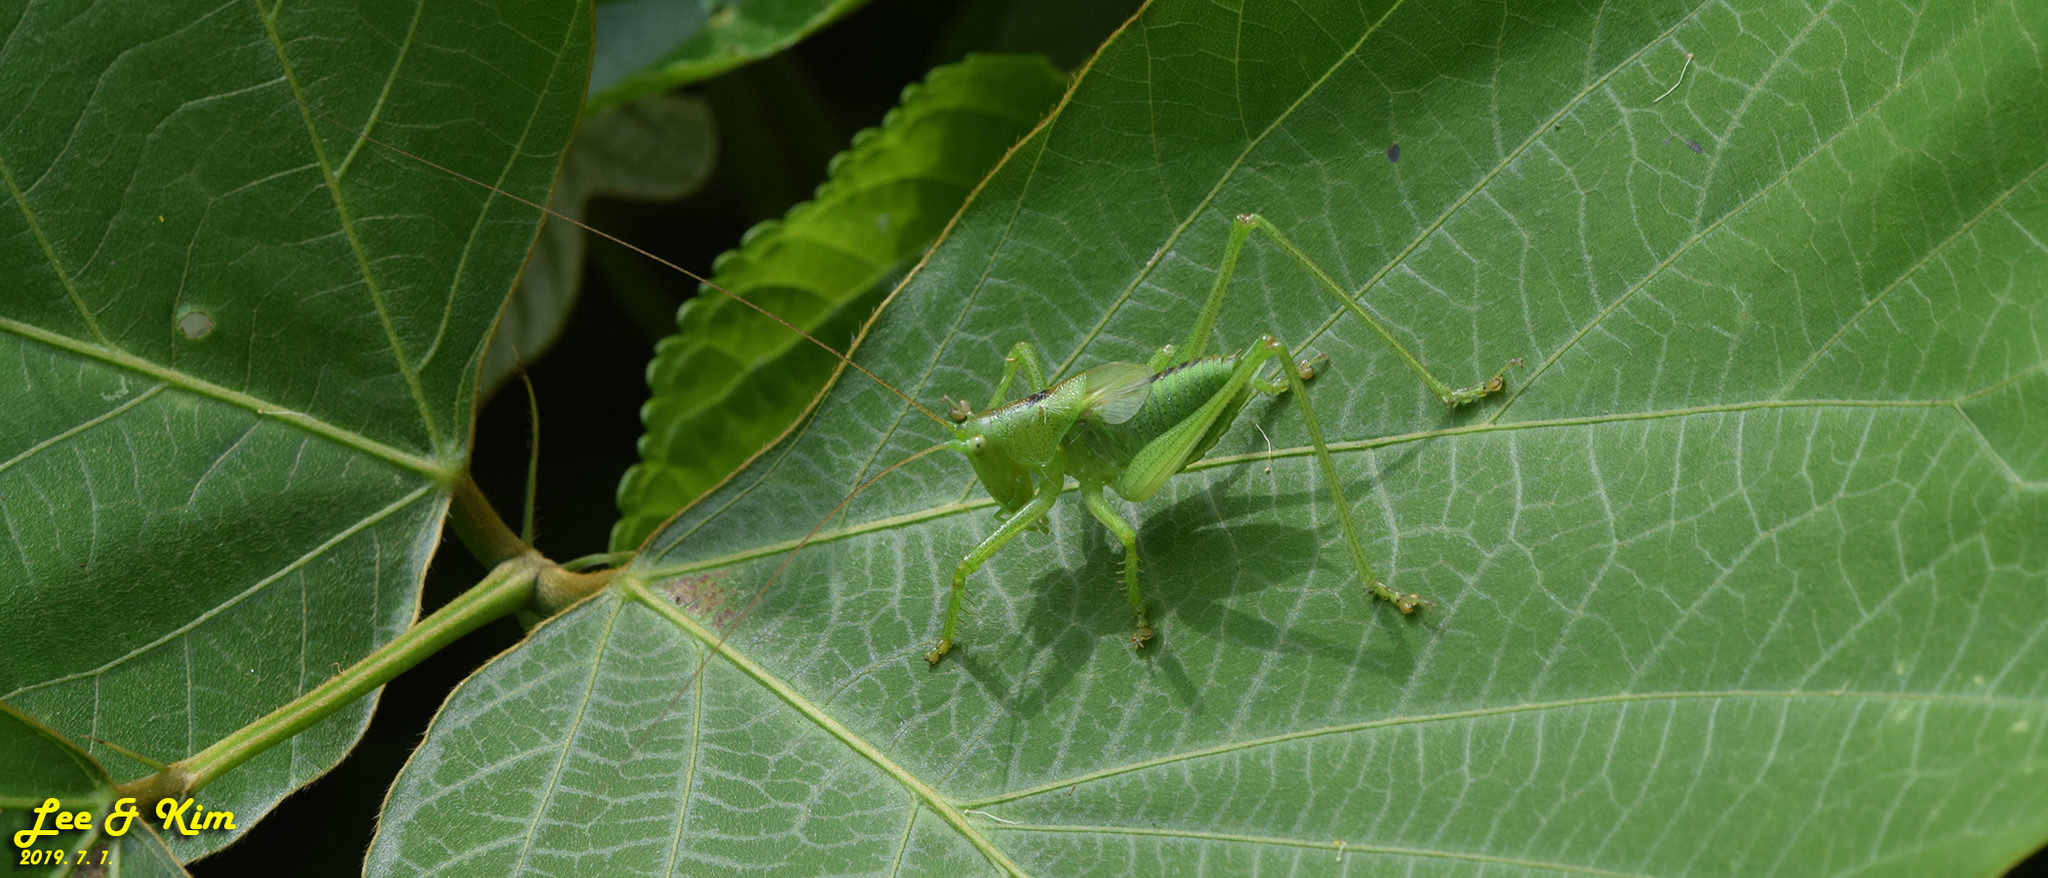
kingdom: Animalia
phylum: Arthropoda
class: Insecta
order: Orthoptera
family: Tettigoniidae
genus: Tettigonia
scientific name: Tettigonia ussuriana
